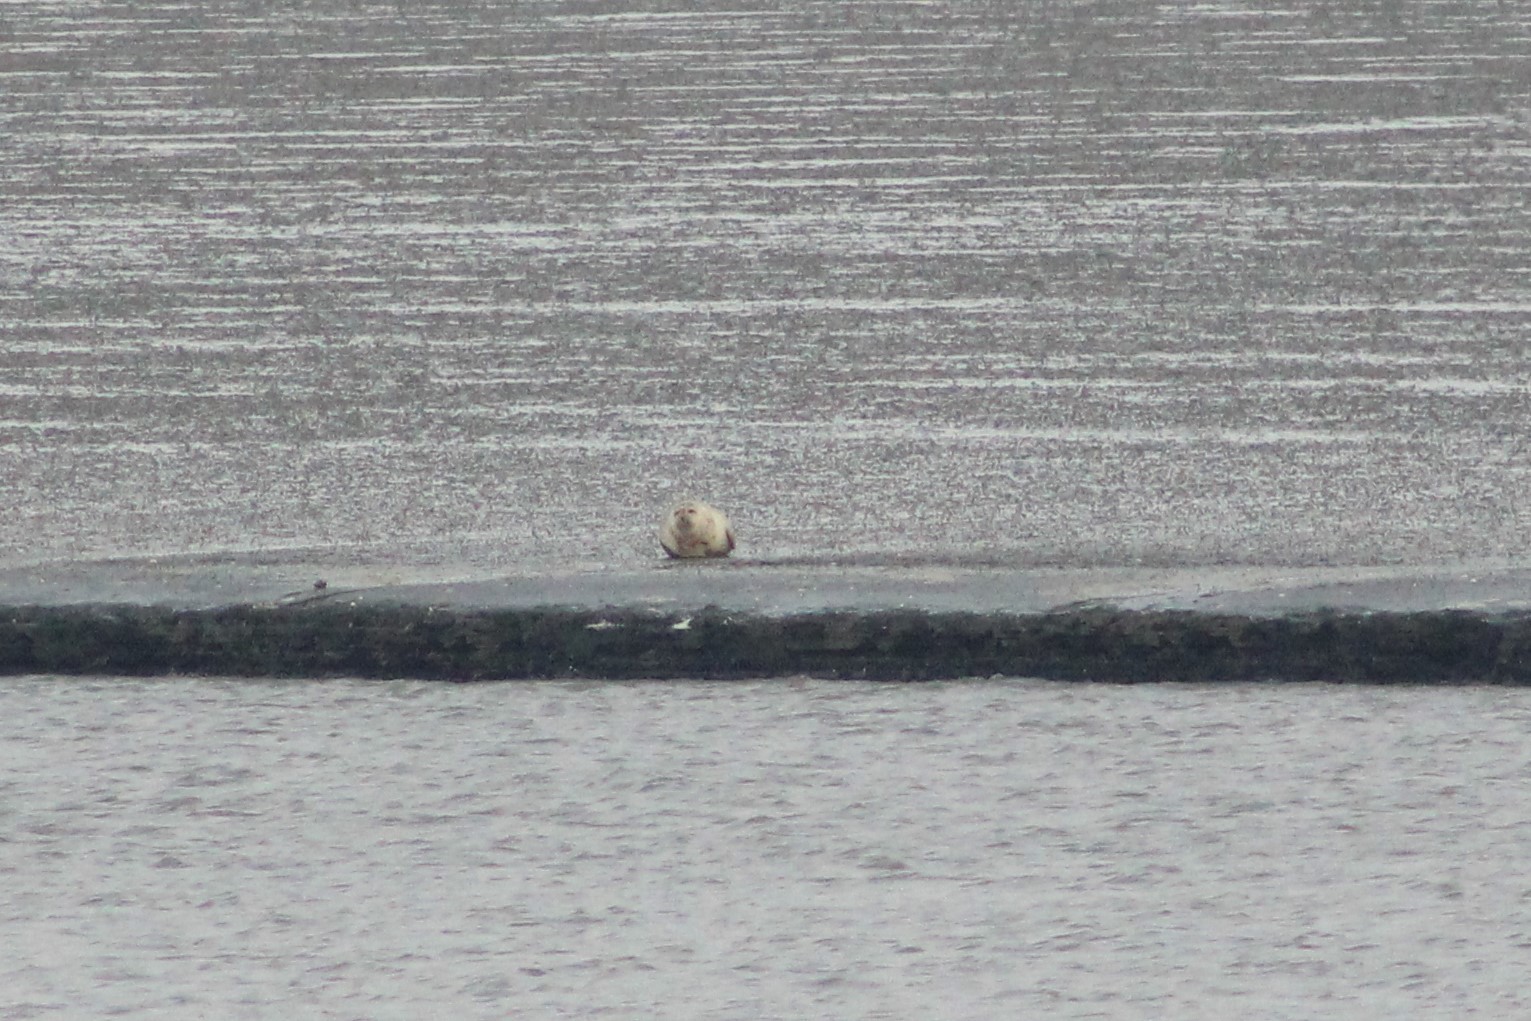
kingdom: Animalia
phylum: Chordata
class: Mammalia
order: Carnivora
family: Phocidae
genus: Phoca
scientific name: Phoca vitulina
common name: Harbor seal
